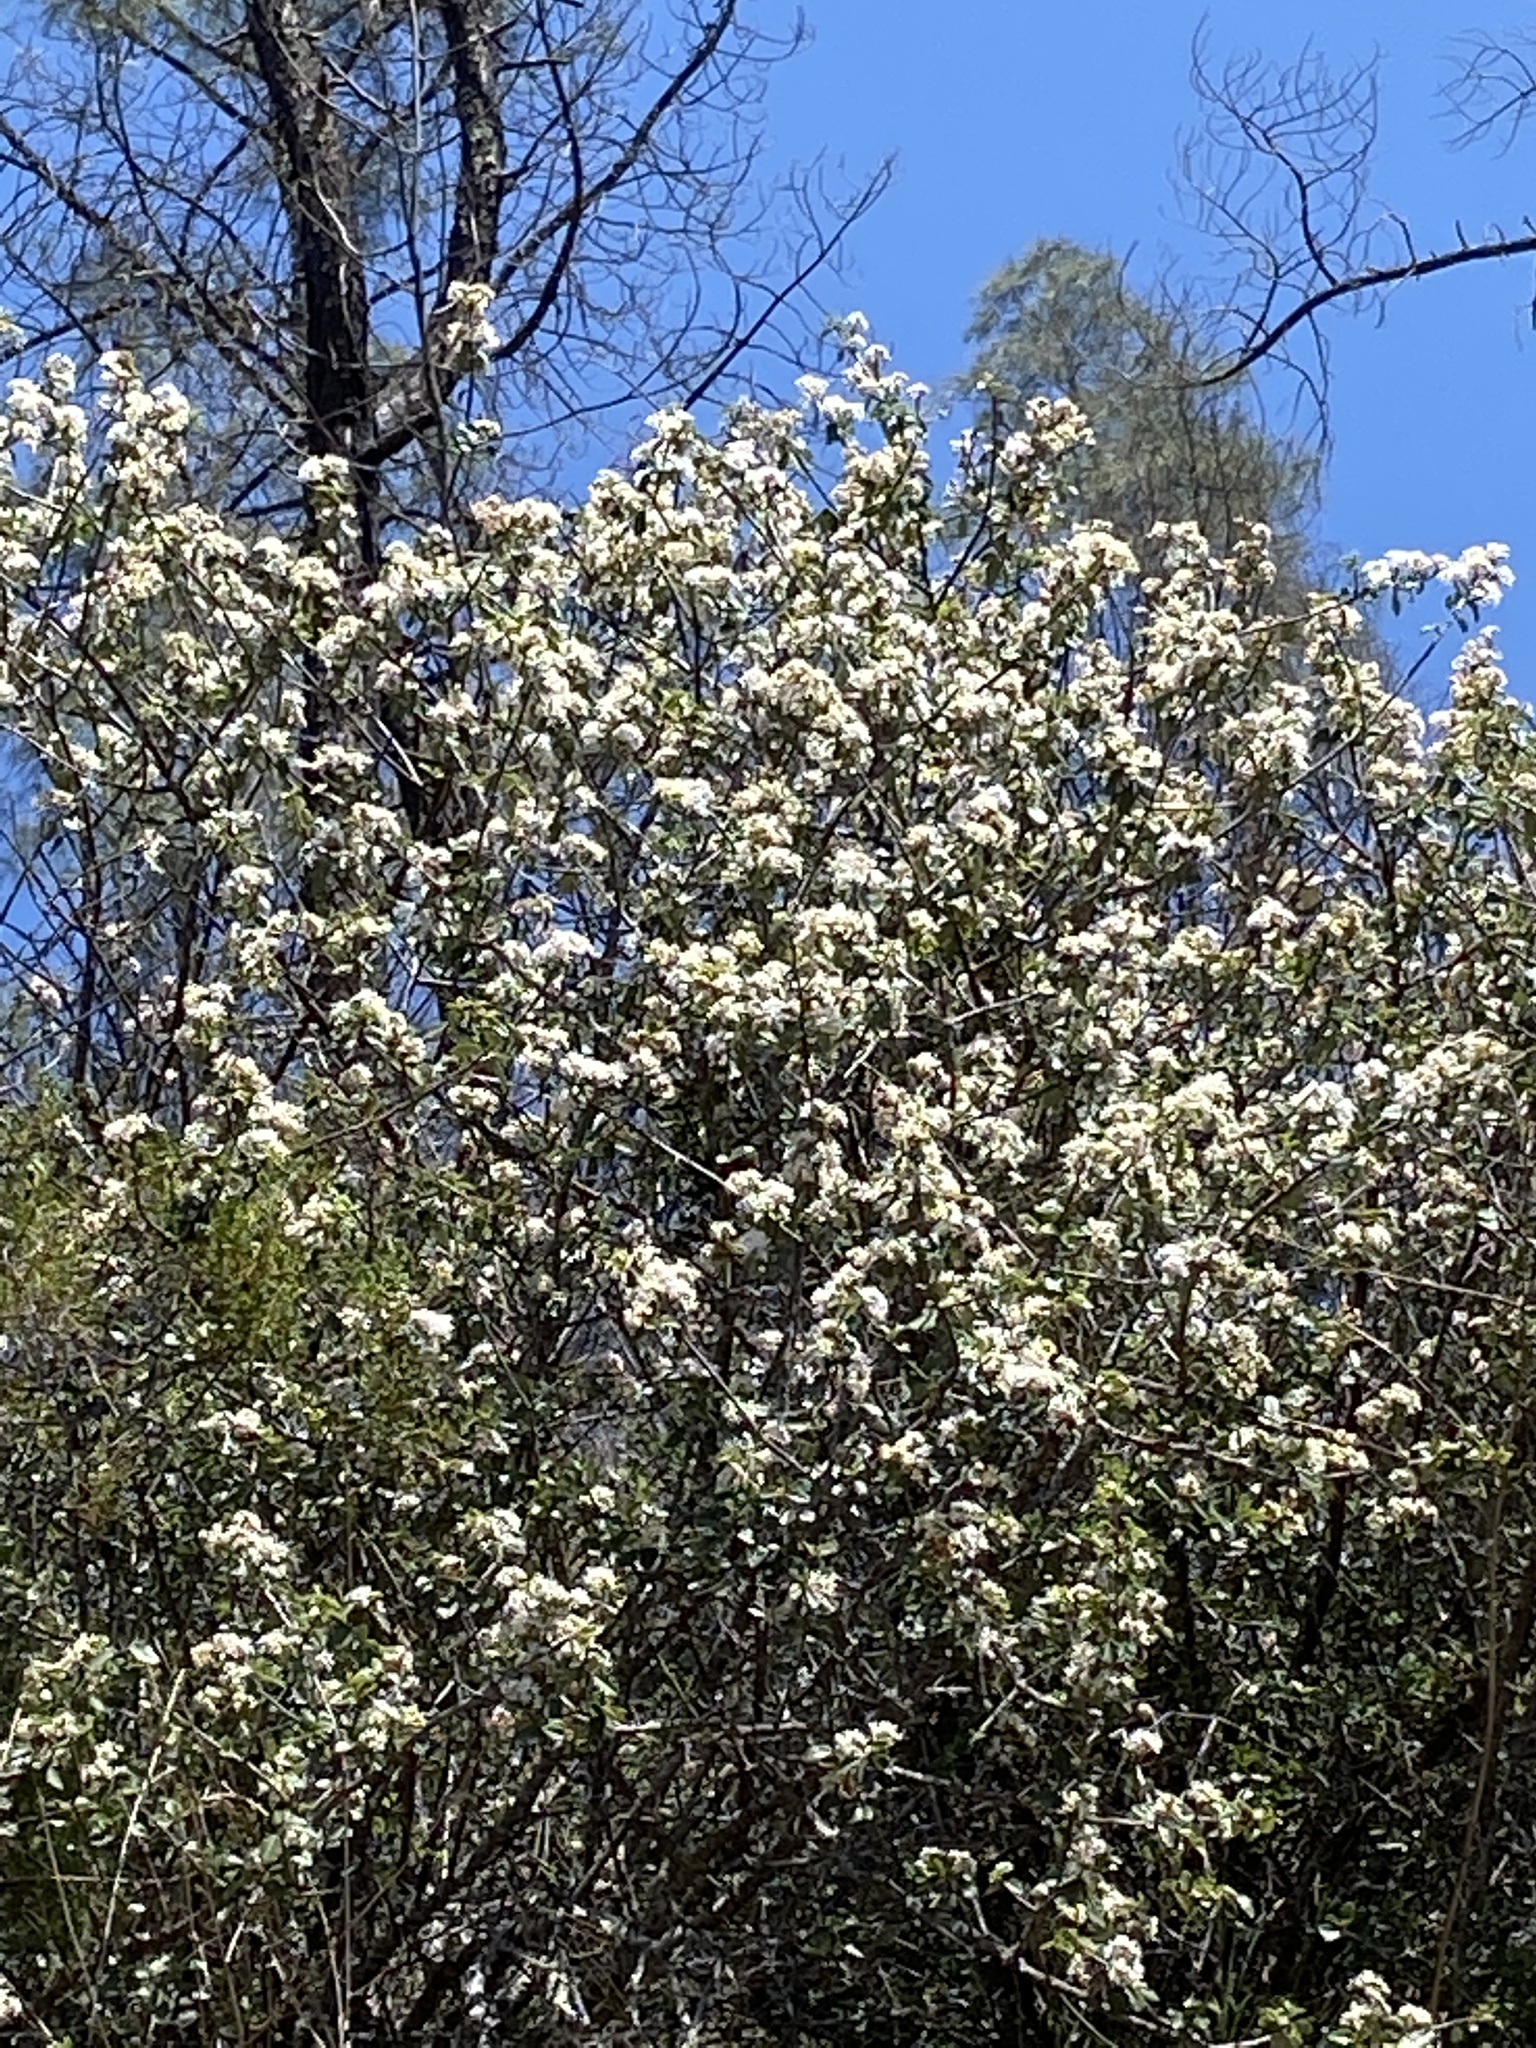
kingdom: Plantae
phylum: Tracheophyta
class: Magnoliopsida
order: Rosales
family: Rhamnaceae
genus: Ceanothus
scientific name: Ceanothus cuneatus
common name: Cuneate ceanothus
